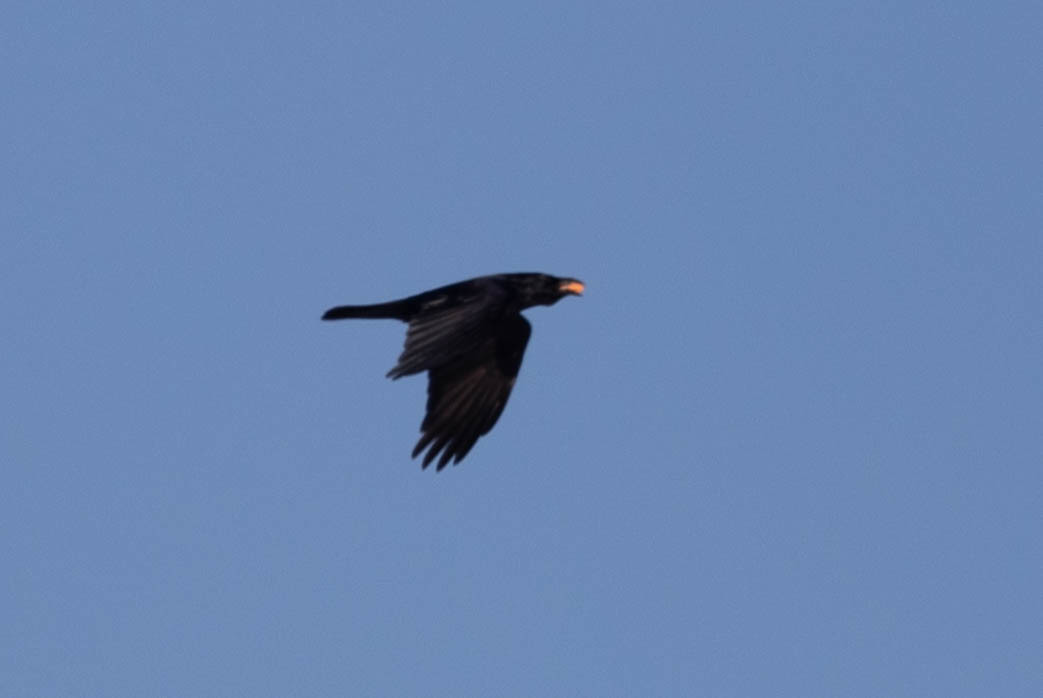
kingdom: Animalia
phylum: Chordata
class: Aves
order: Passeriformes
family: Corvidae
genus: Corvus
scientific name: Corvus corax
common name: Common raven
